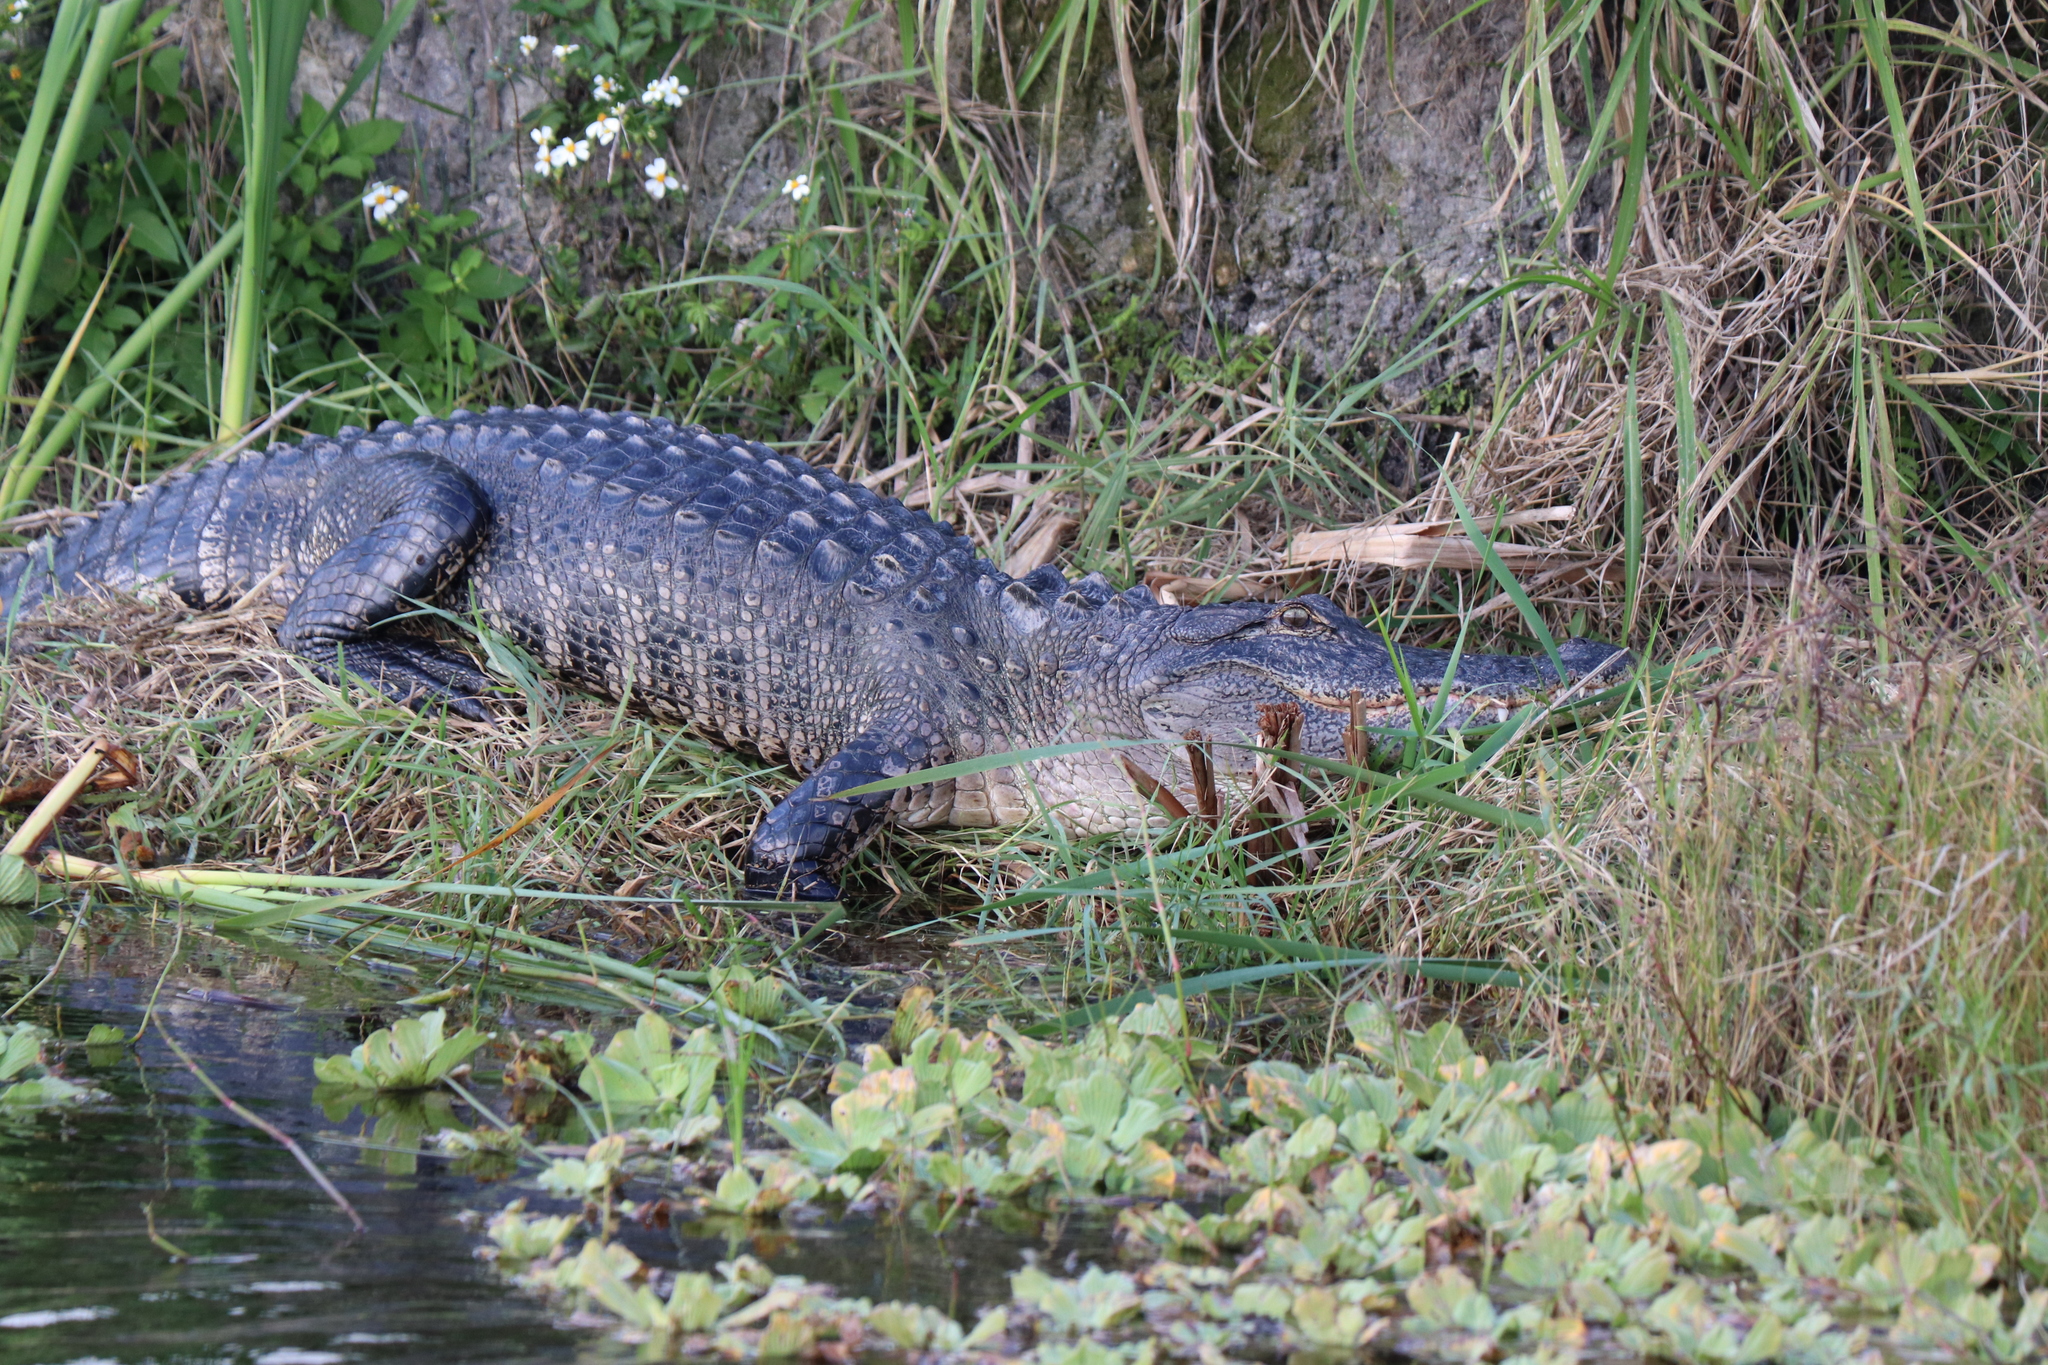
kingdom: Animalia
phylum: Chordata
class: Crocodylia
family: Alligatoridae
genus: Alligator
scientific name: Alligator mississippiensis
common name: American alligator
